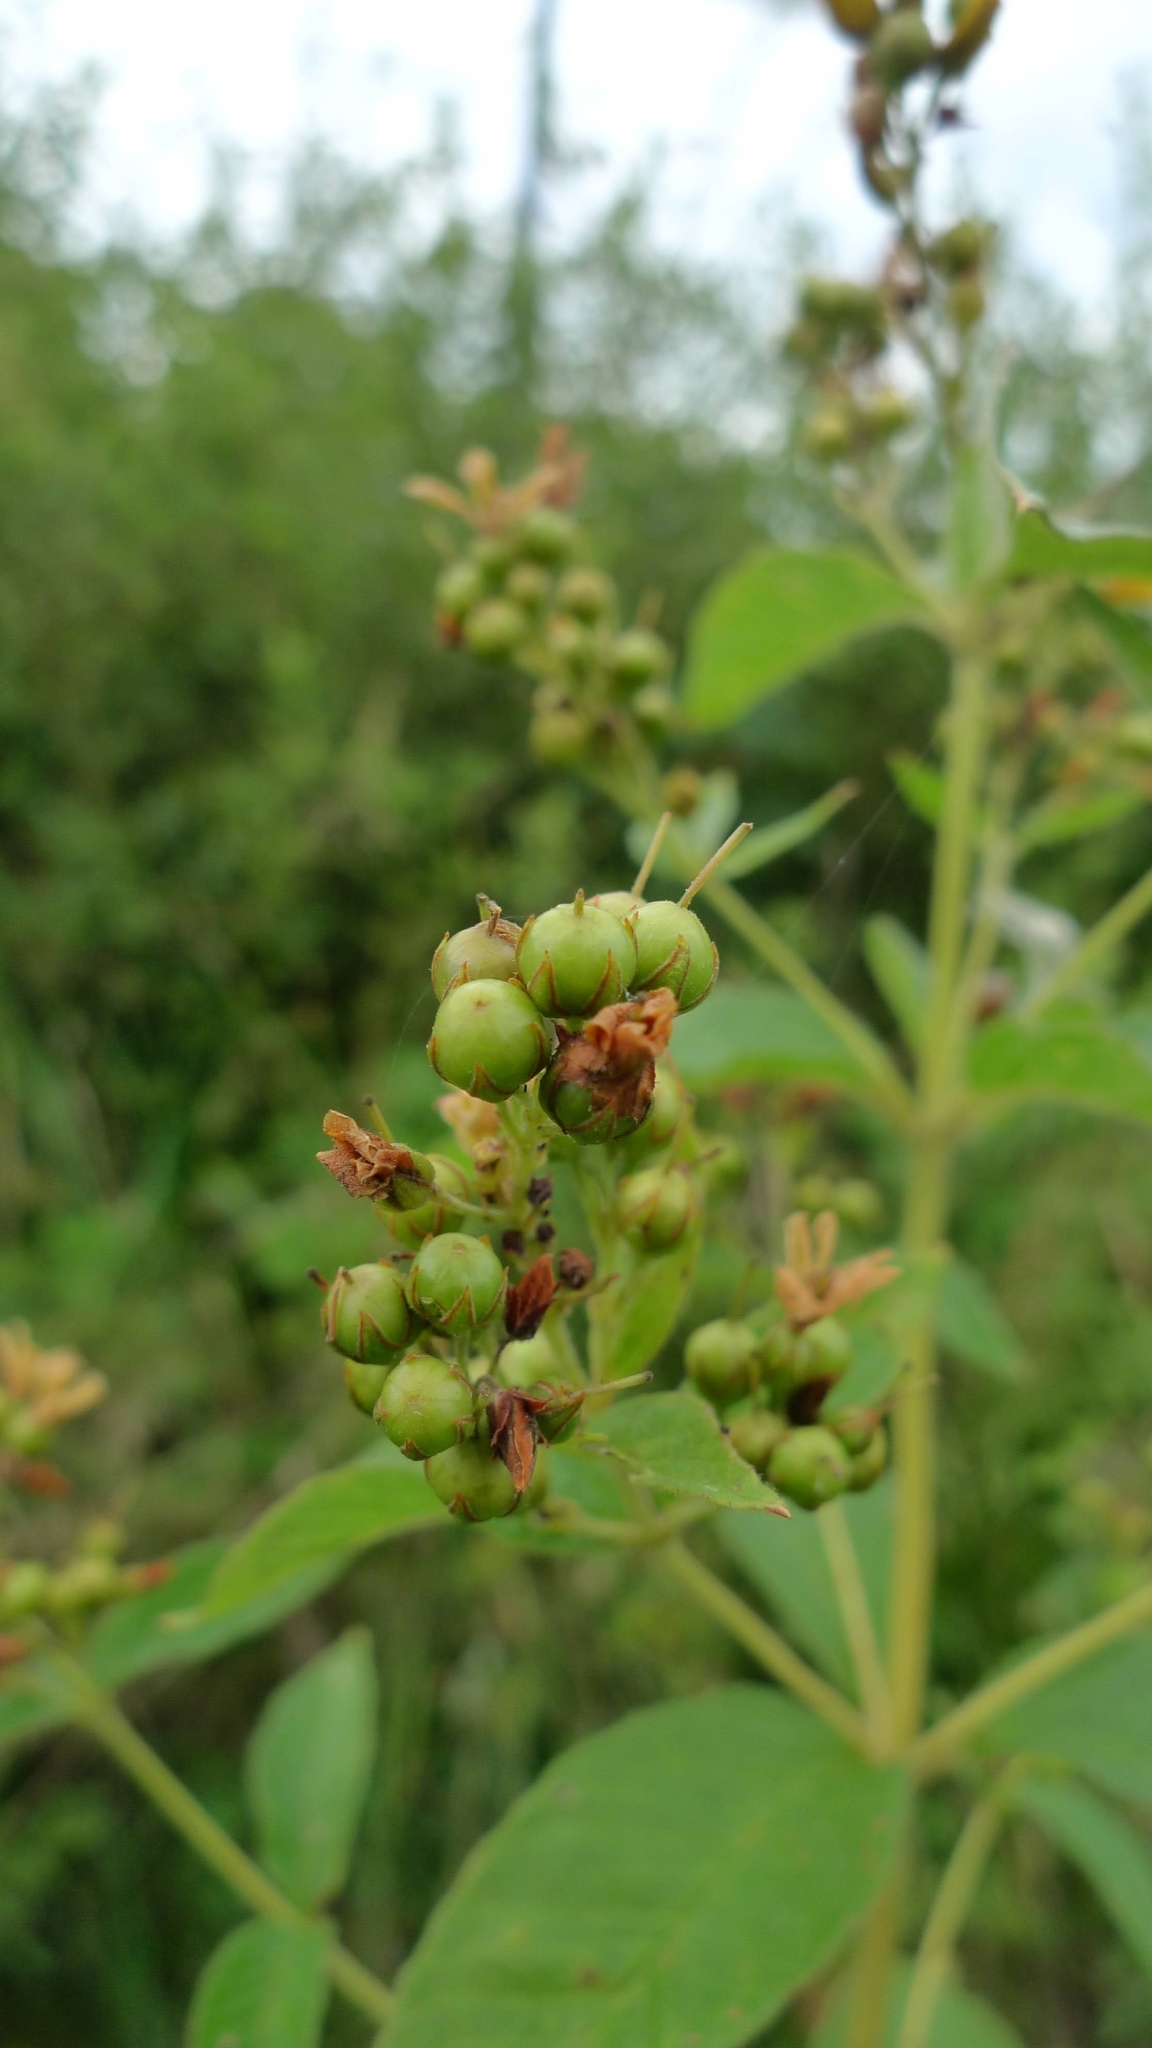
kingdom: Plantae
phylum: Tracheophyta
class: Magnoliopsida
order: Ericales
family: Primulaceae
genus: Lysimachia
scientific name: Lysimachia vulgaris
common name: Yellow loosestrife
